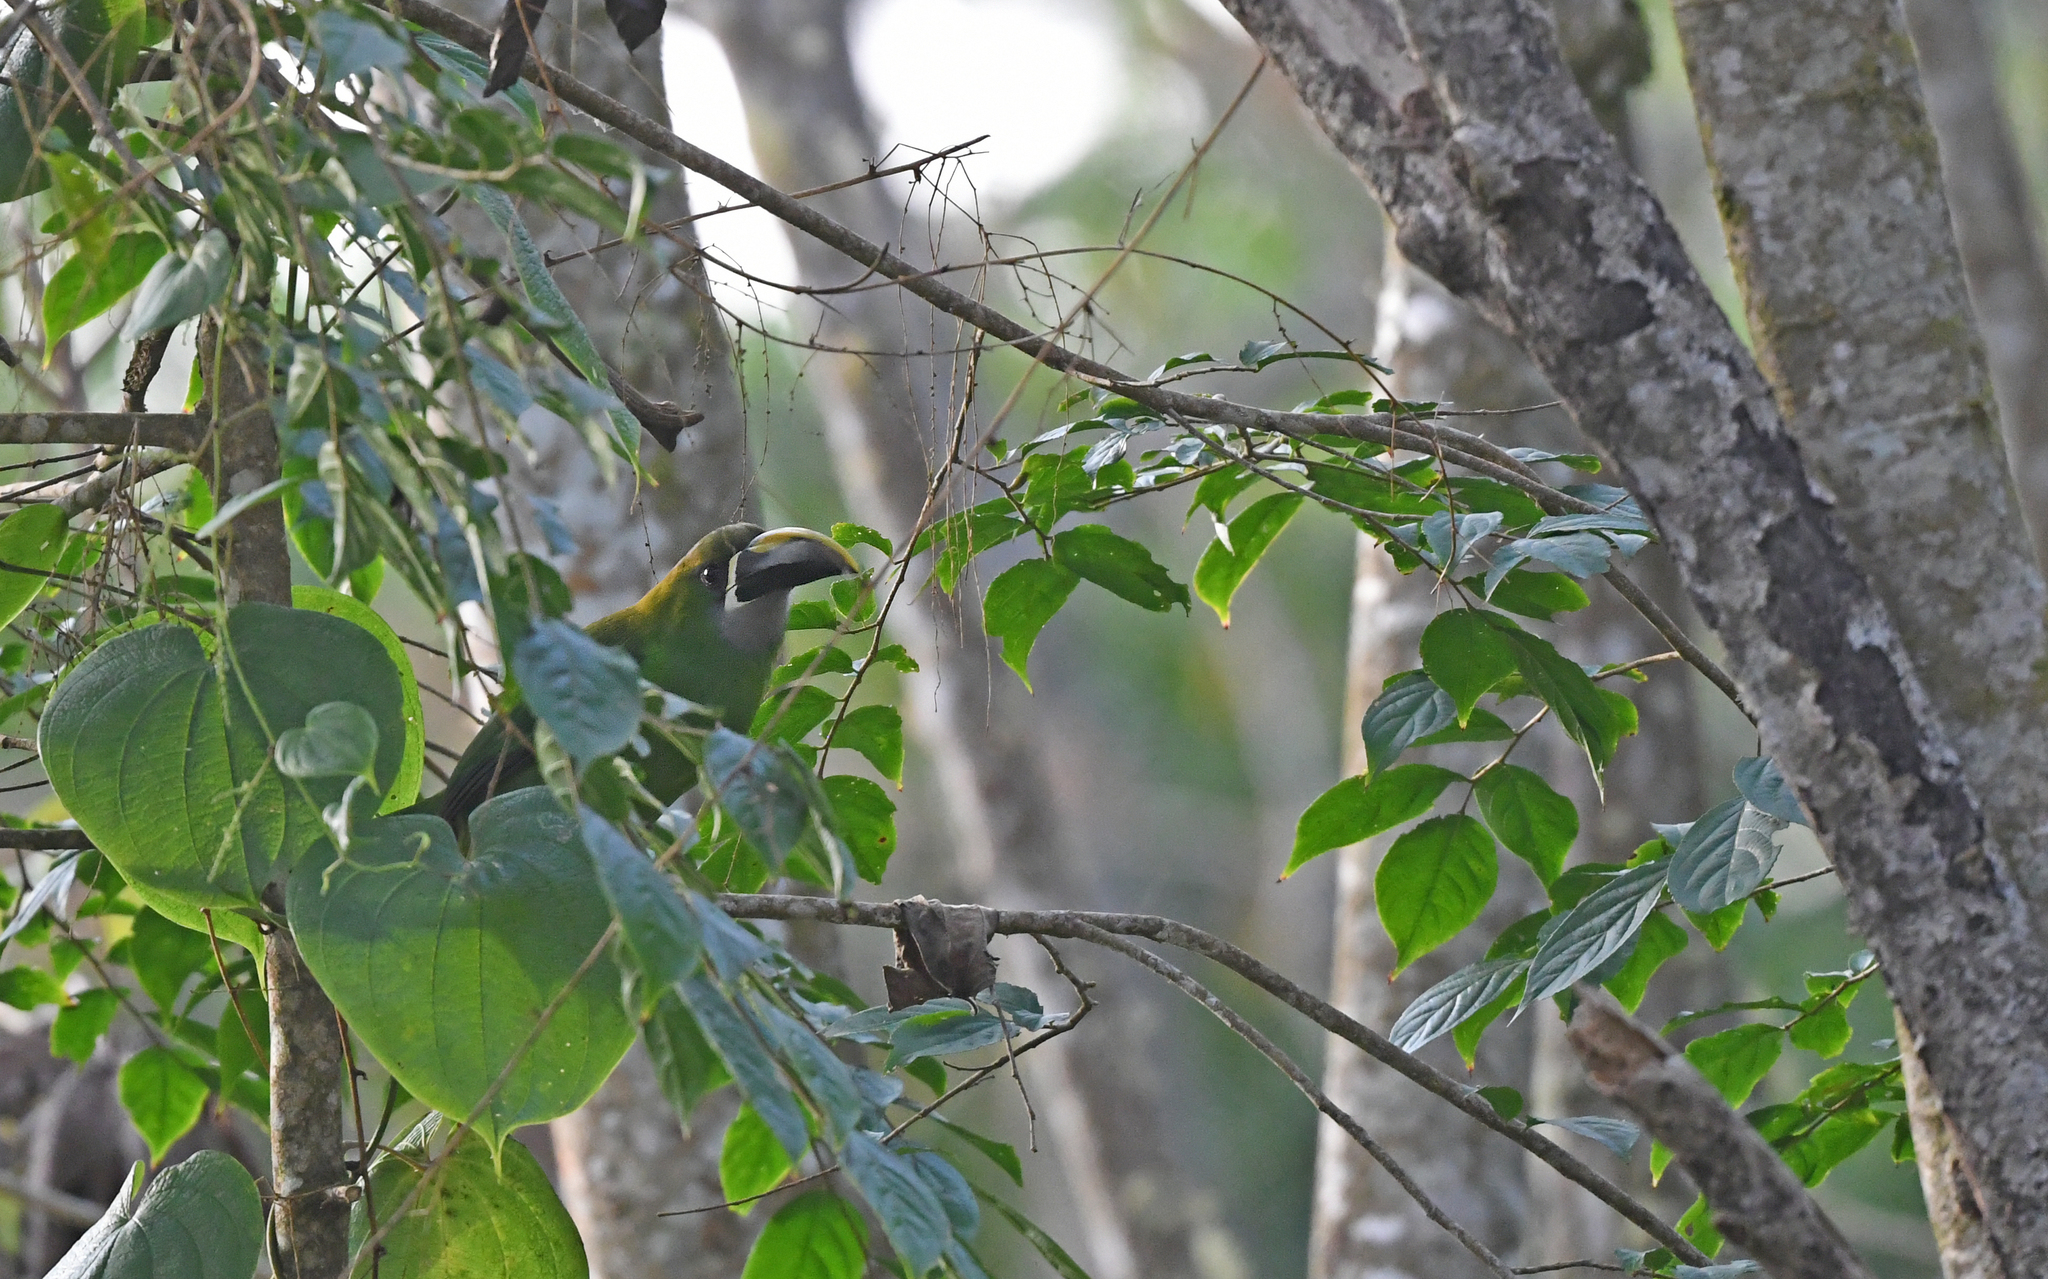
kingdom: Animalia
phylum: Chordata
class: Aves
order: Piciformes
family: Ramphastidae
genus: Aulacorhynchus
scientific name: Aulacorhynchus albivitta
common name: White-throated toucanet
